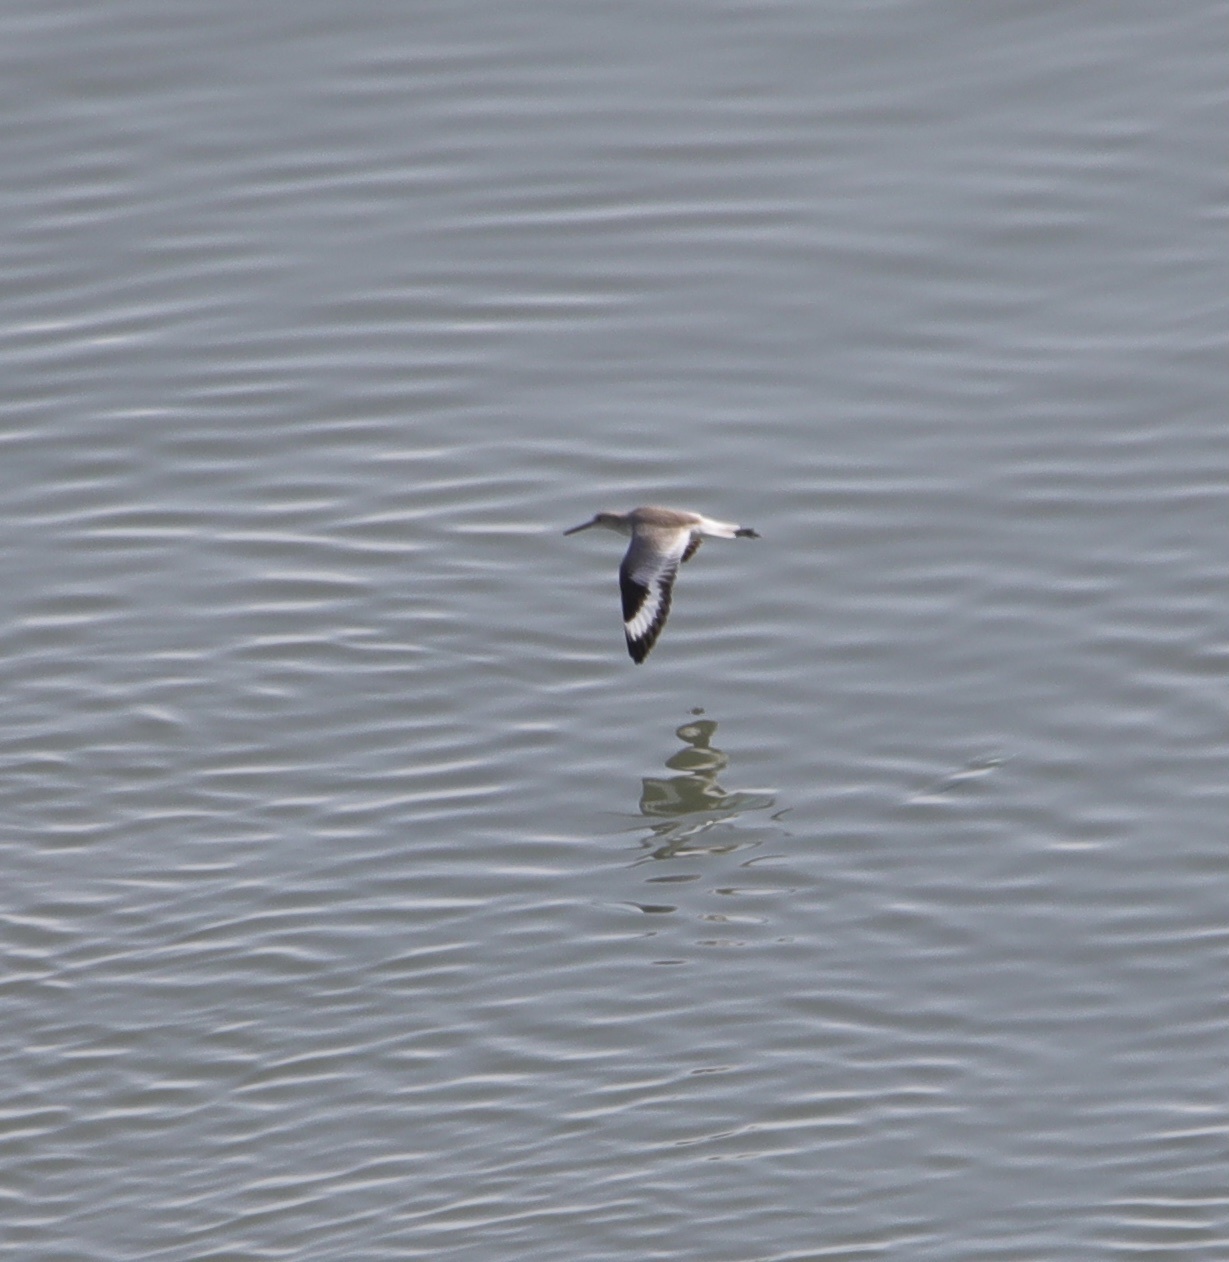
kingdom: Animalia
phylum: Chordata
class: Aves
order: Charadriiformes
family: Scolopacidae
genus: Tringa
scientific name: Tringa semipalmata
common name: Willet
